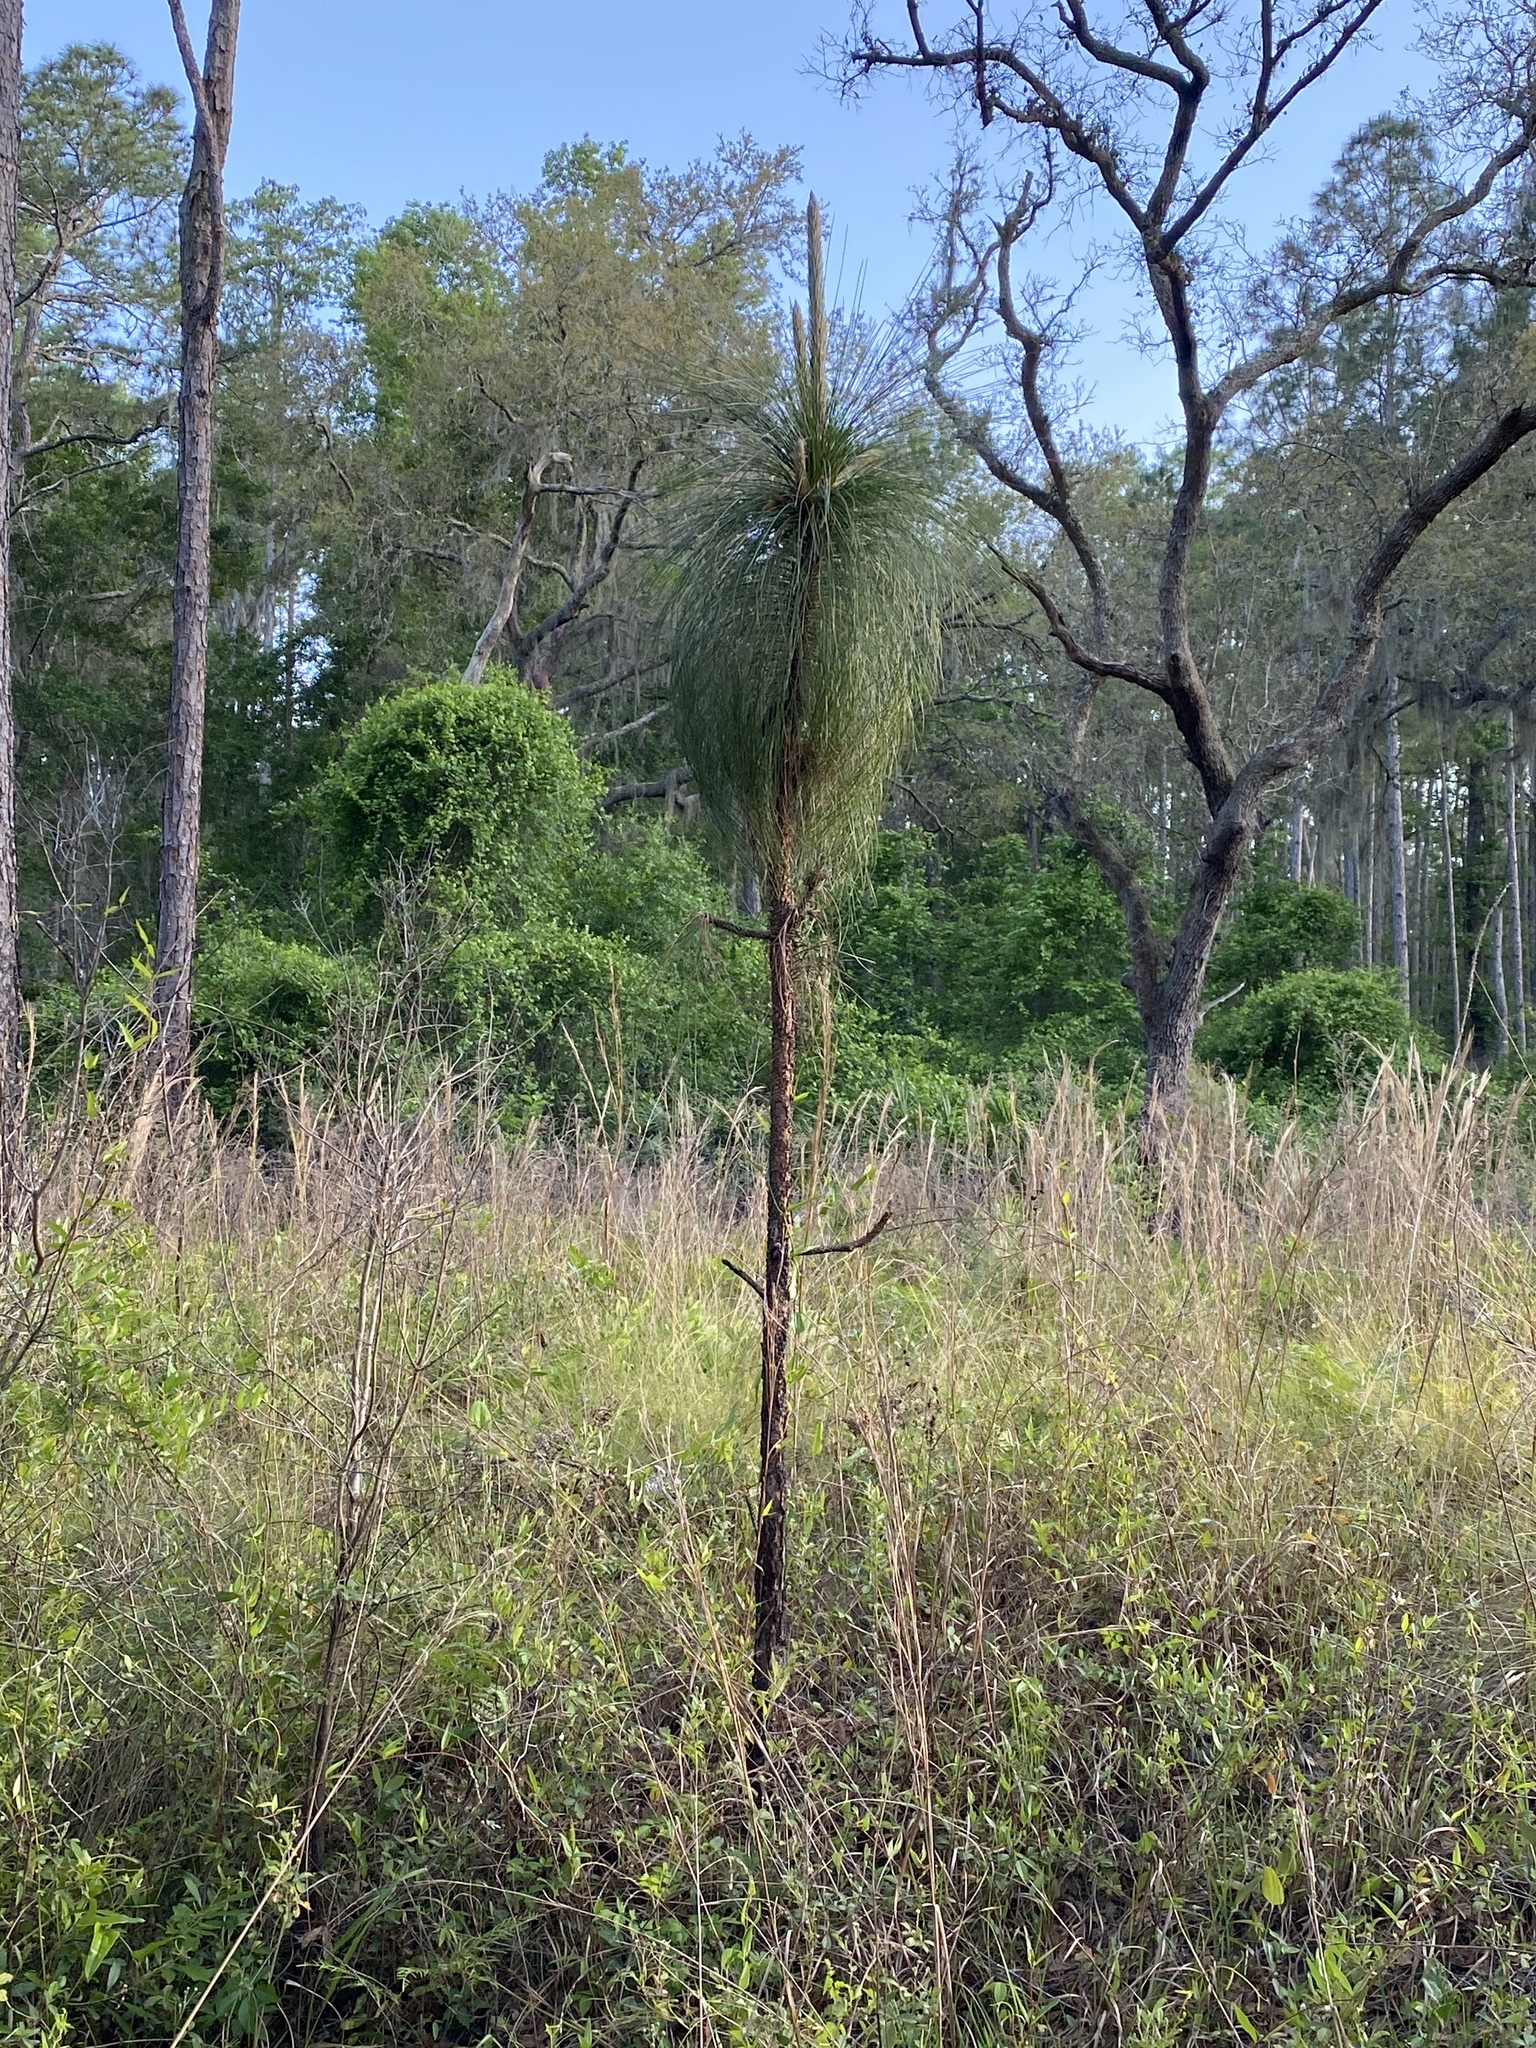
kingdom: Plantae
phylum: Tracheophyta
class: Pinopsida
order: Pinales
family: Pinaceae
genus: Pinus
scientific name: Pinus palustris
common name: Longleaf pine
